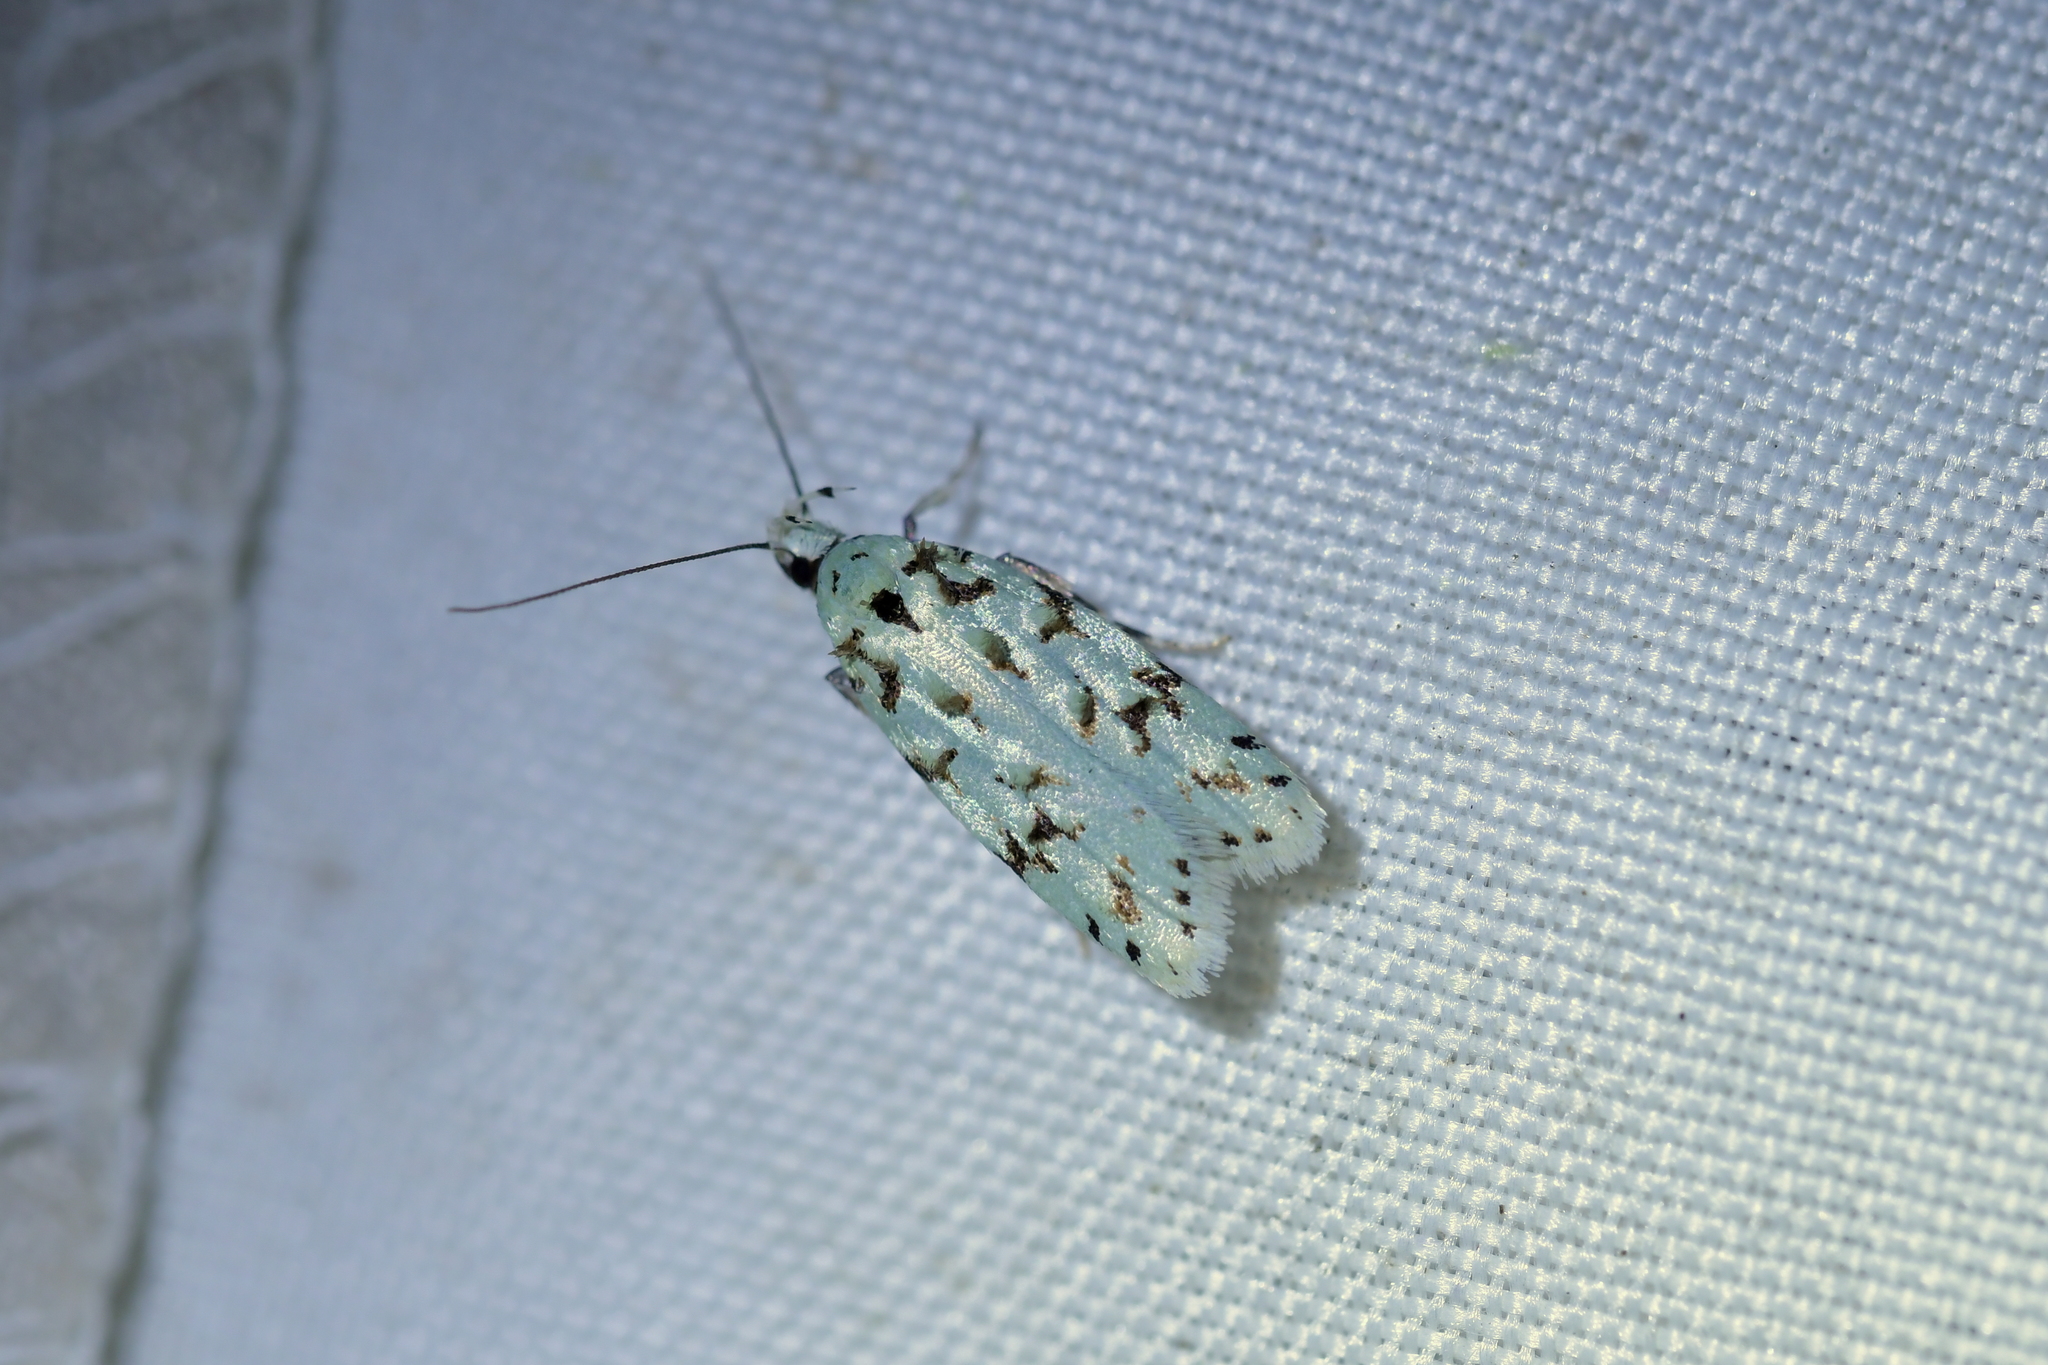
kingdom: Animalia
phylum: Arthropoda
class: Insecta
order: Lepidoptera
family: Oecophoridae
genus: Izatha
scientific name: Izatha peroneanella
